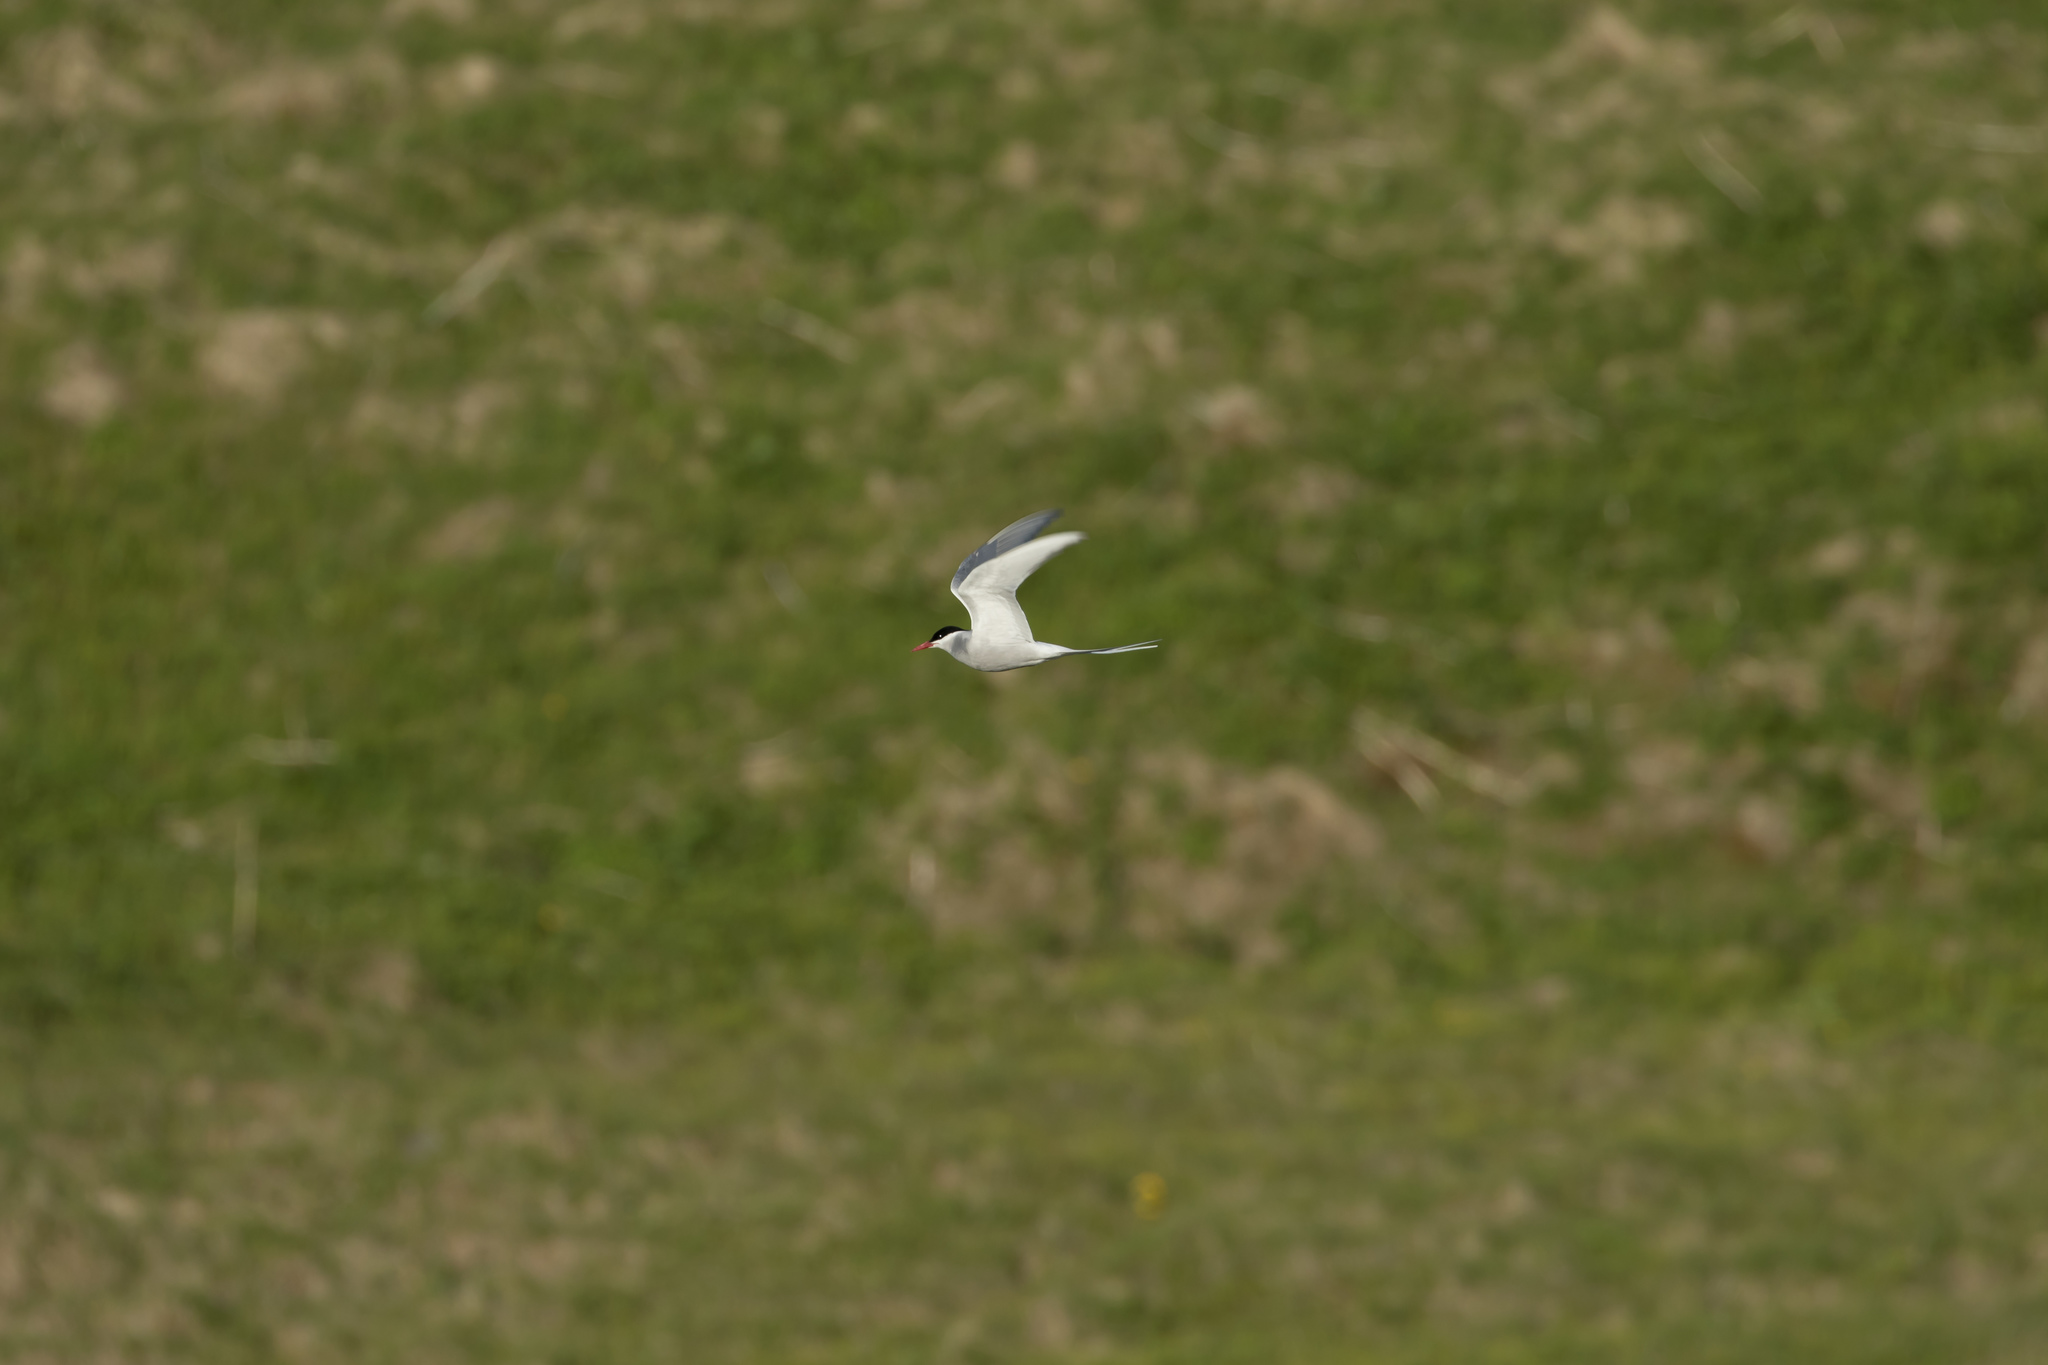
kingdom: Animalia
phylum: Chordata
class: Aves
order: Charadriiformes
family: Laridae
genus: Sterna
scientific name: Sterna paradisaea
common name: Arctic tern
